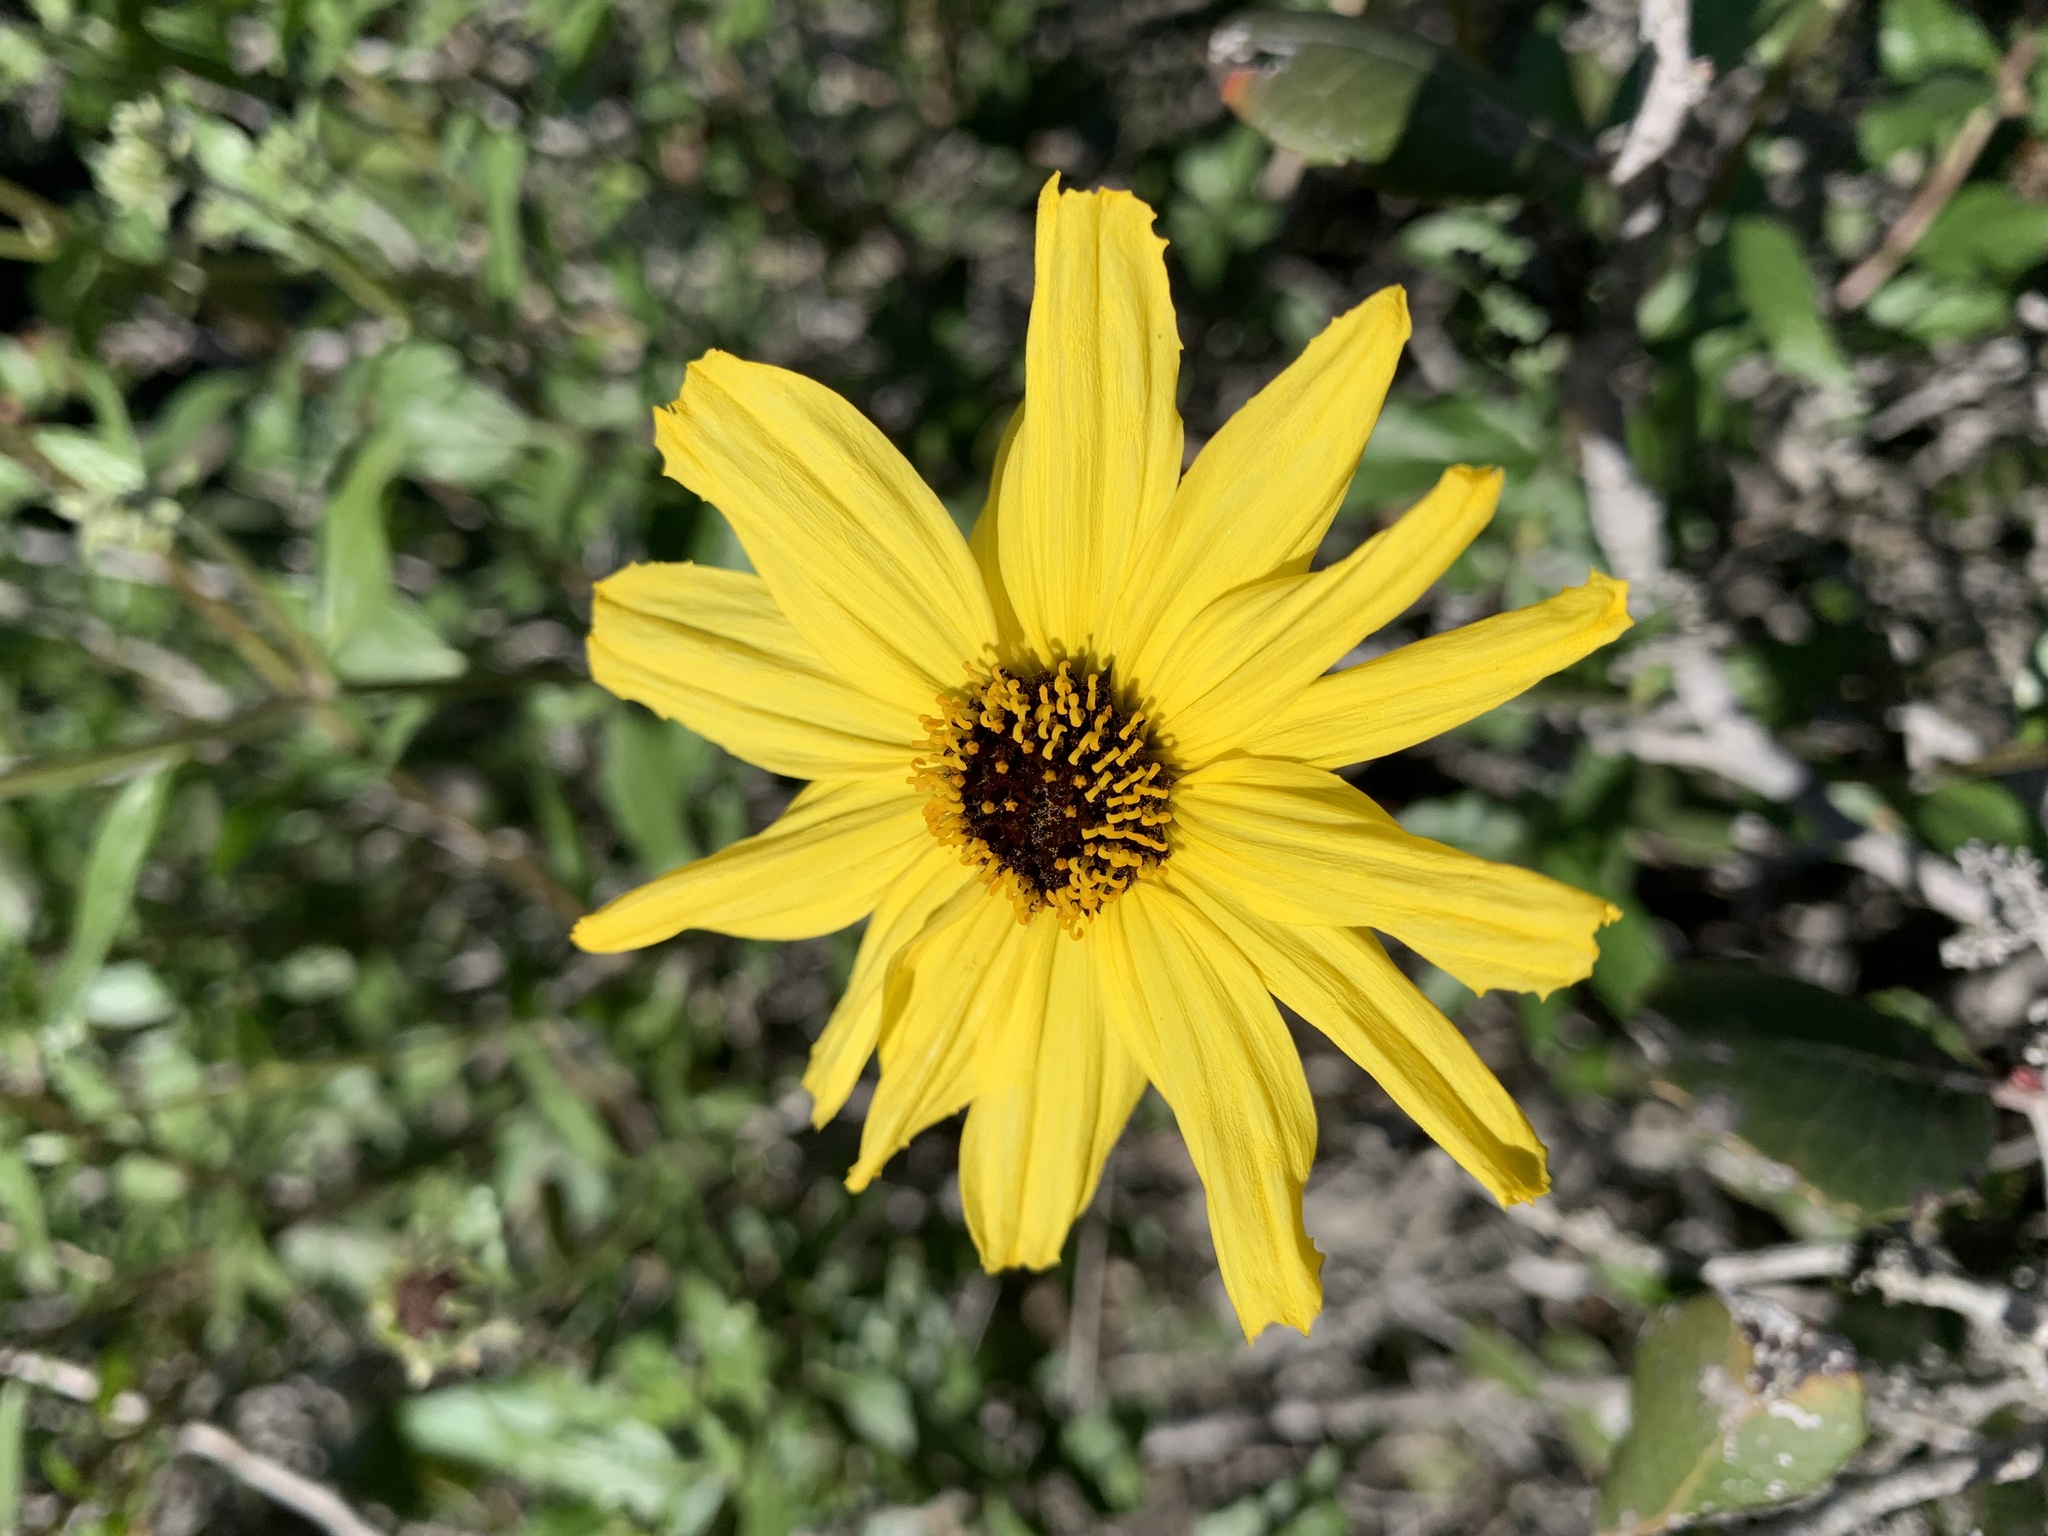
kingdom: Plantae
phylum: Tracheophyta
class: Magnoliopsida
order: Asterales
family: Asteraceae
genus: Encelia
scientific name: Encelia californica
